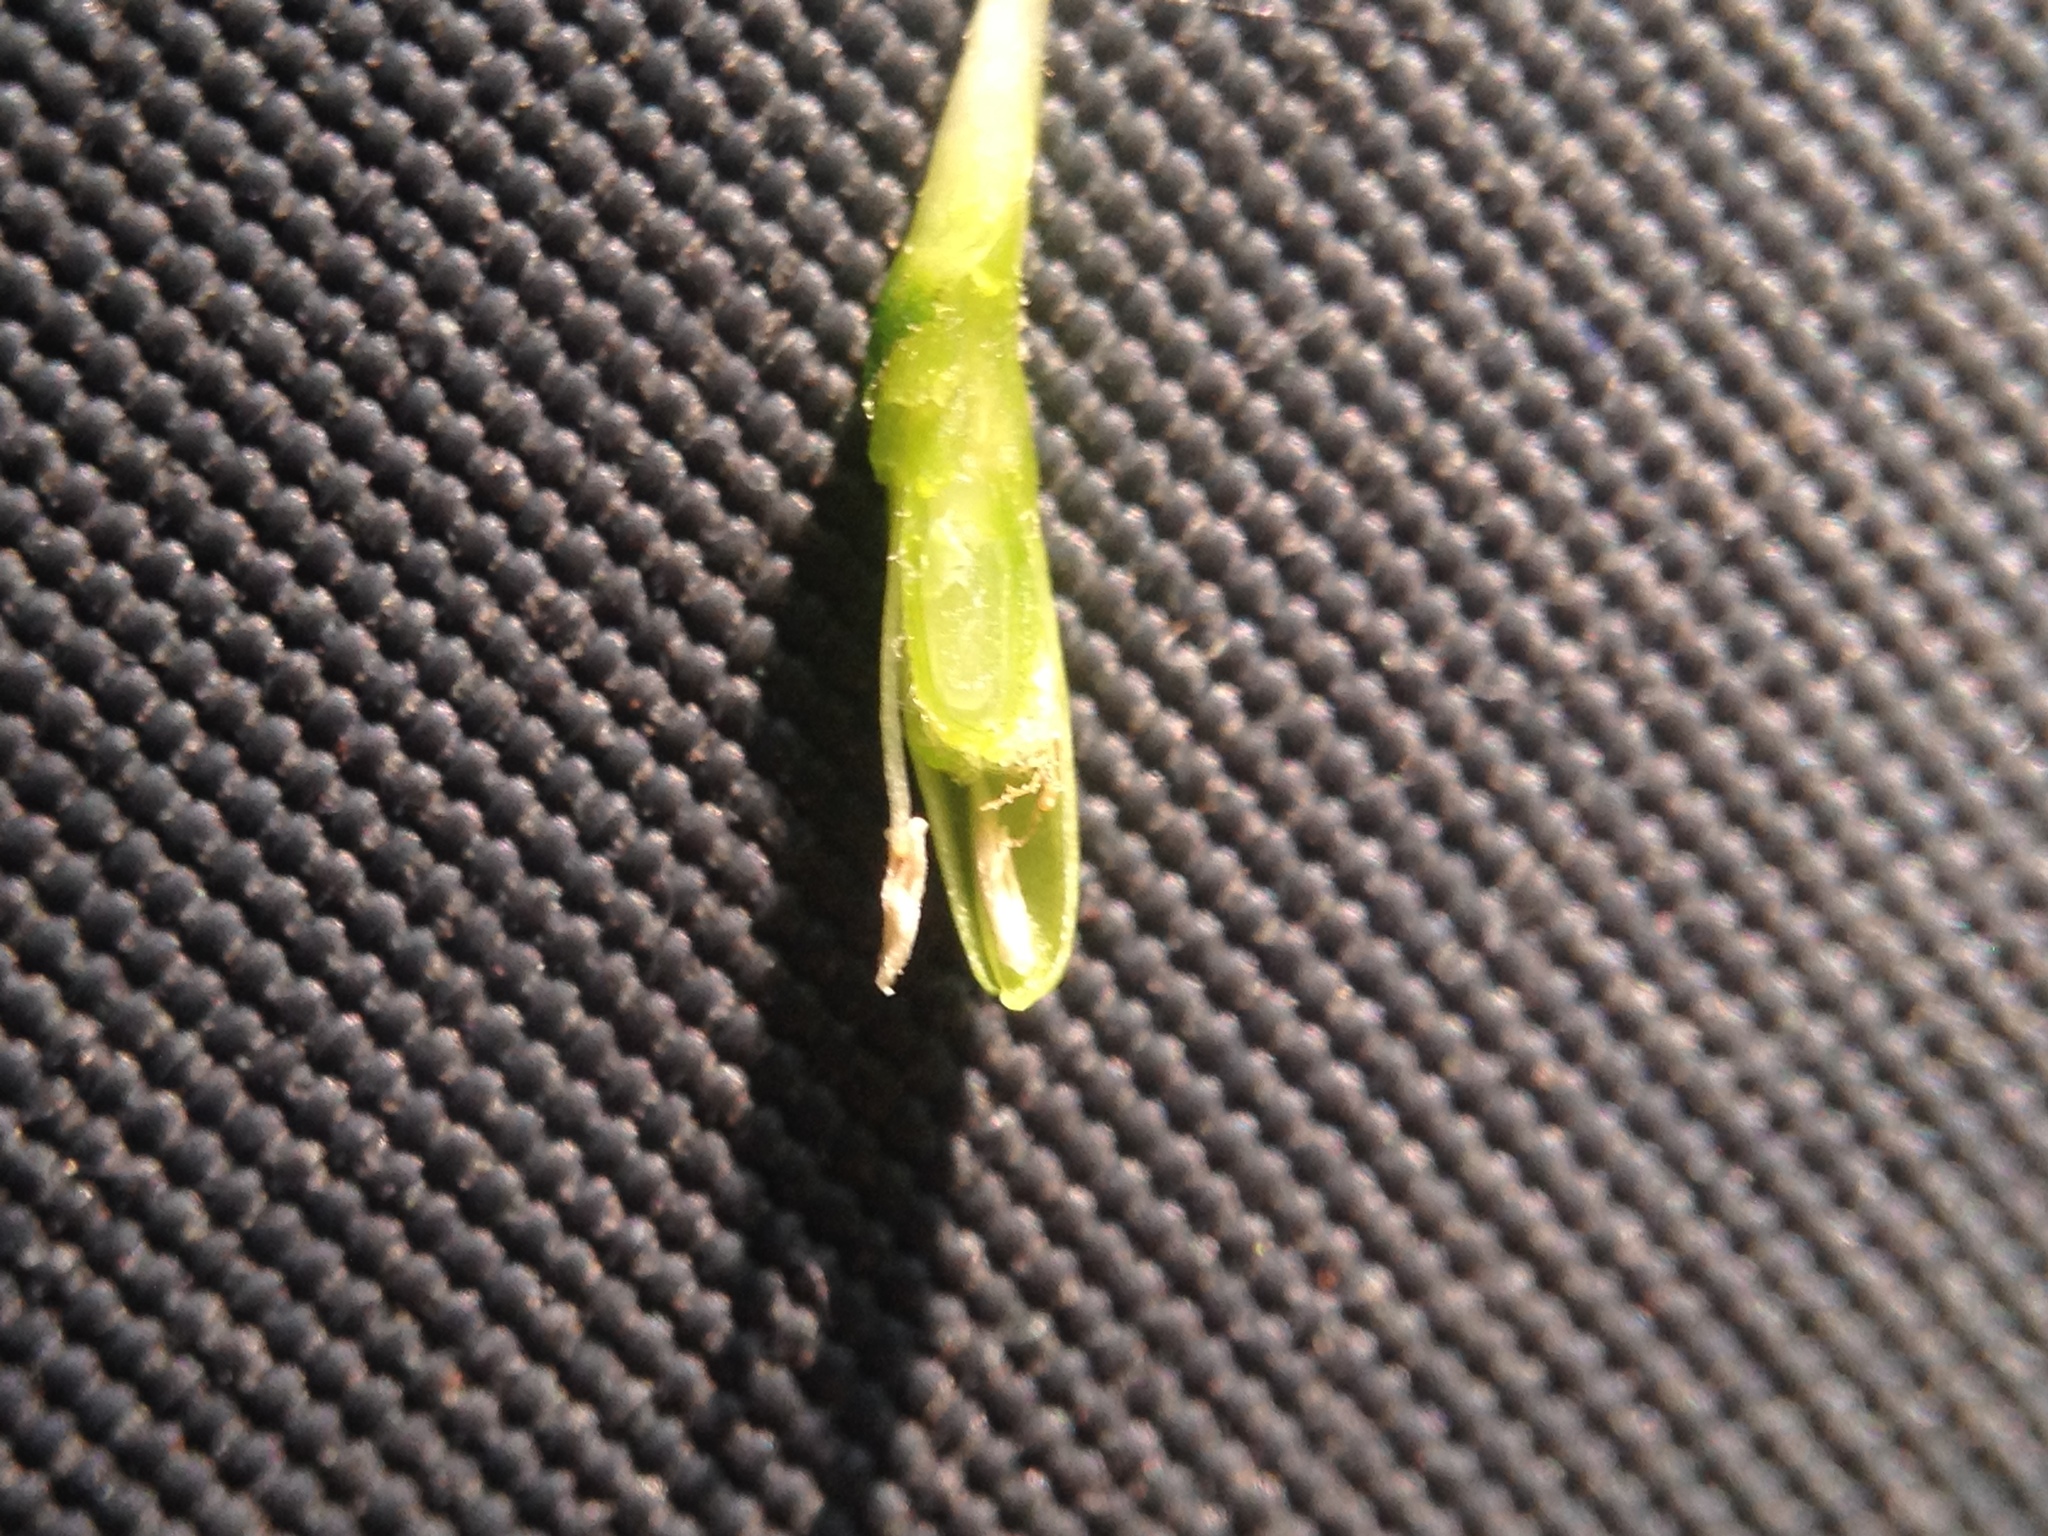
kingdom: Plantae
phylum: Tracheophyta
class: Magnoliopsida
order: Caryophyllales
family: Phytolaccaceae
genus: Petiveria
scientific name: Petiveria alliacea
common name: Garlicweed
